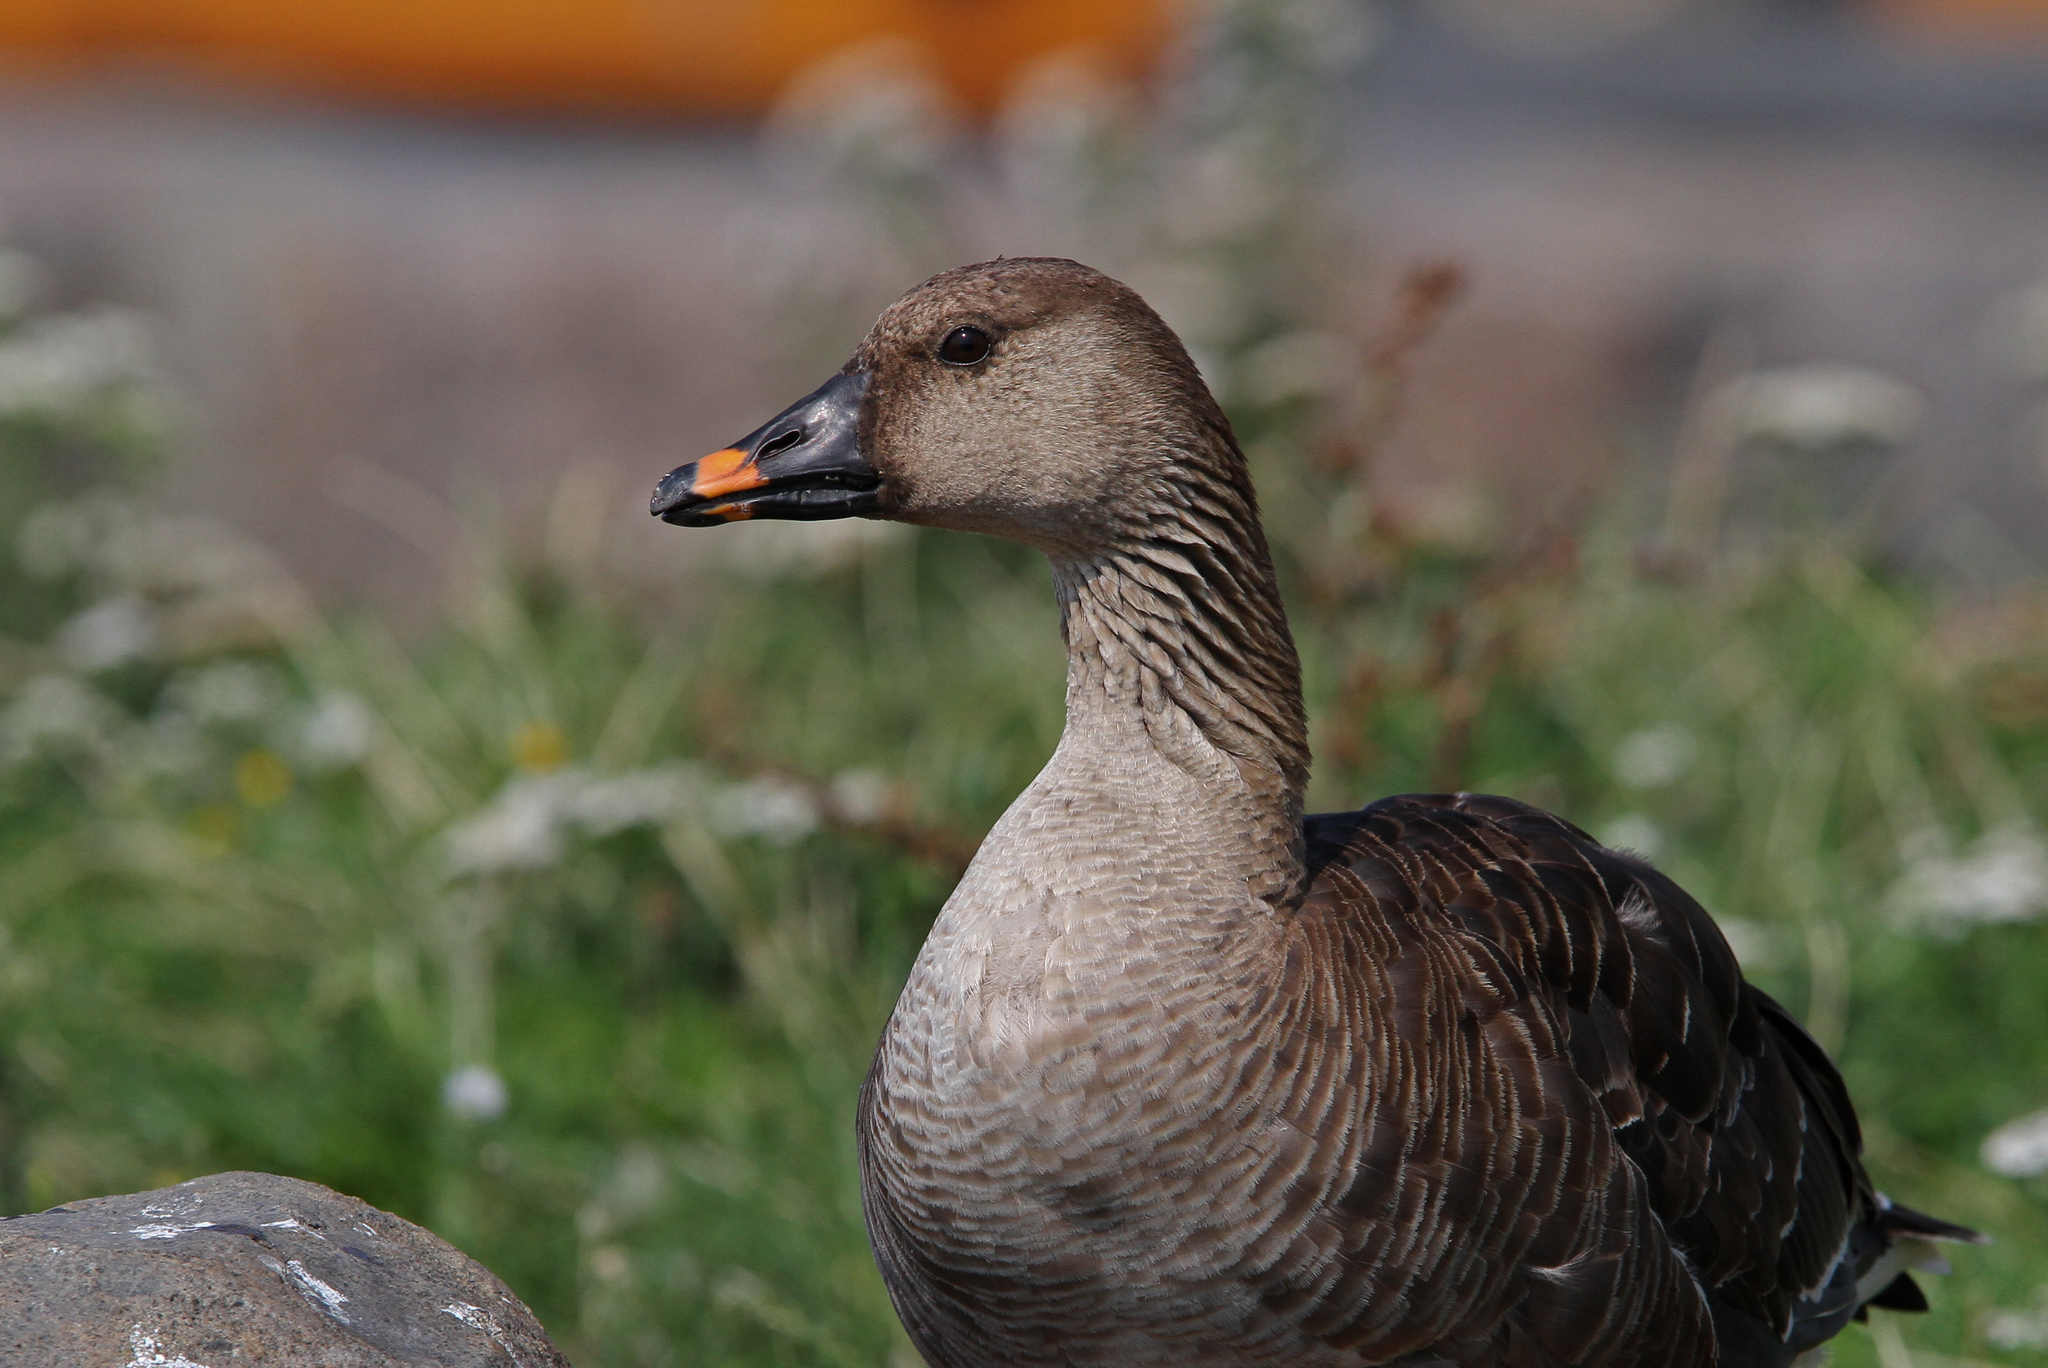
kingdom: Animalia
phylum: Chordata
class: Aves
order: Anseriformes
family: Anatidae
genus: Anser
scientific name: Anser serrirostris
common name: Tundra bean goose
